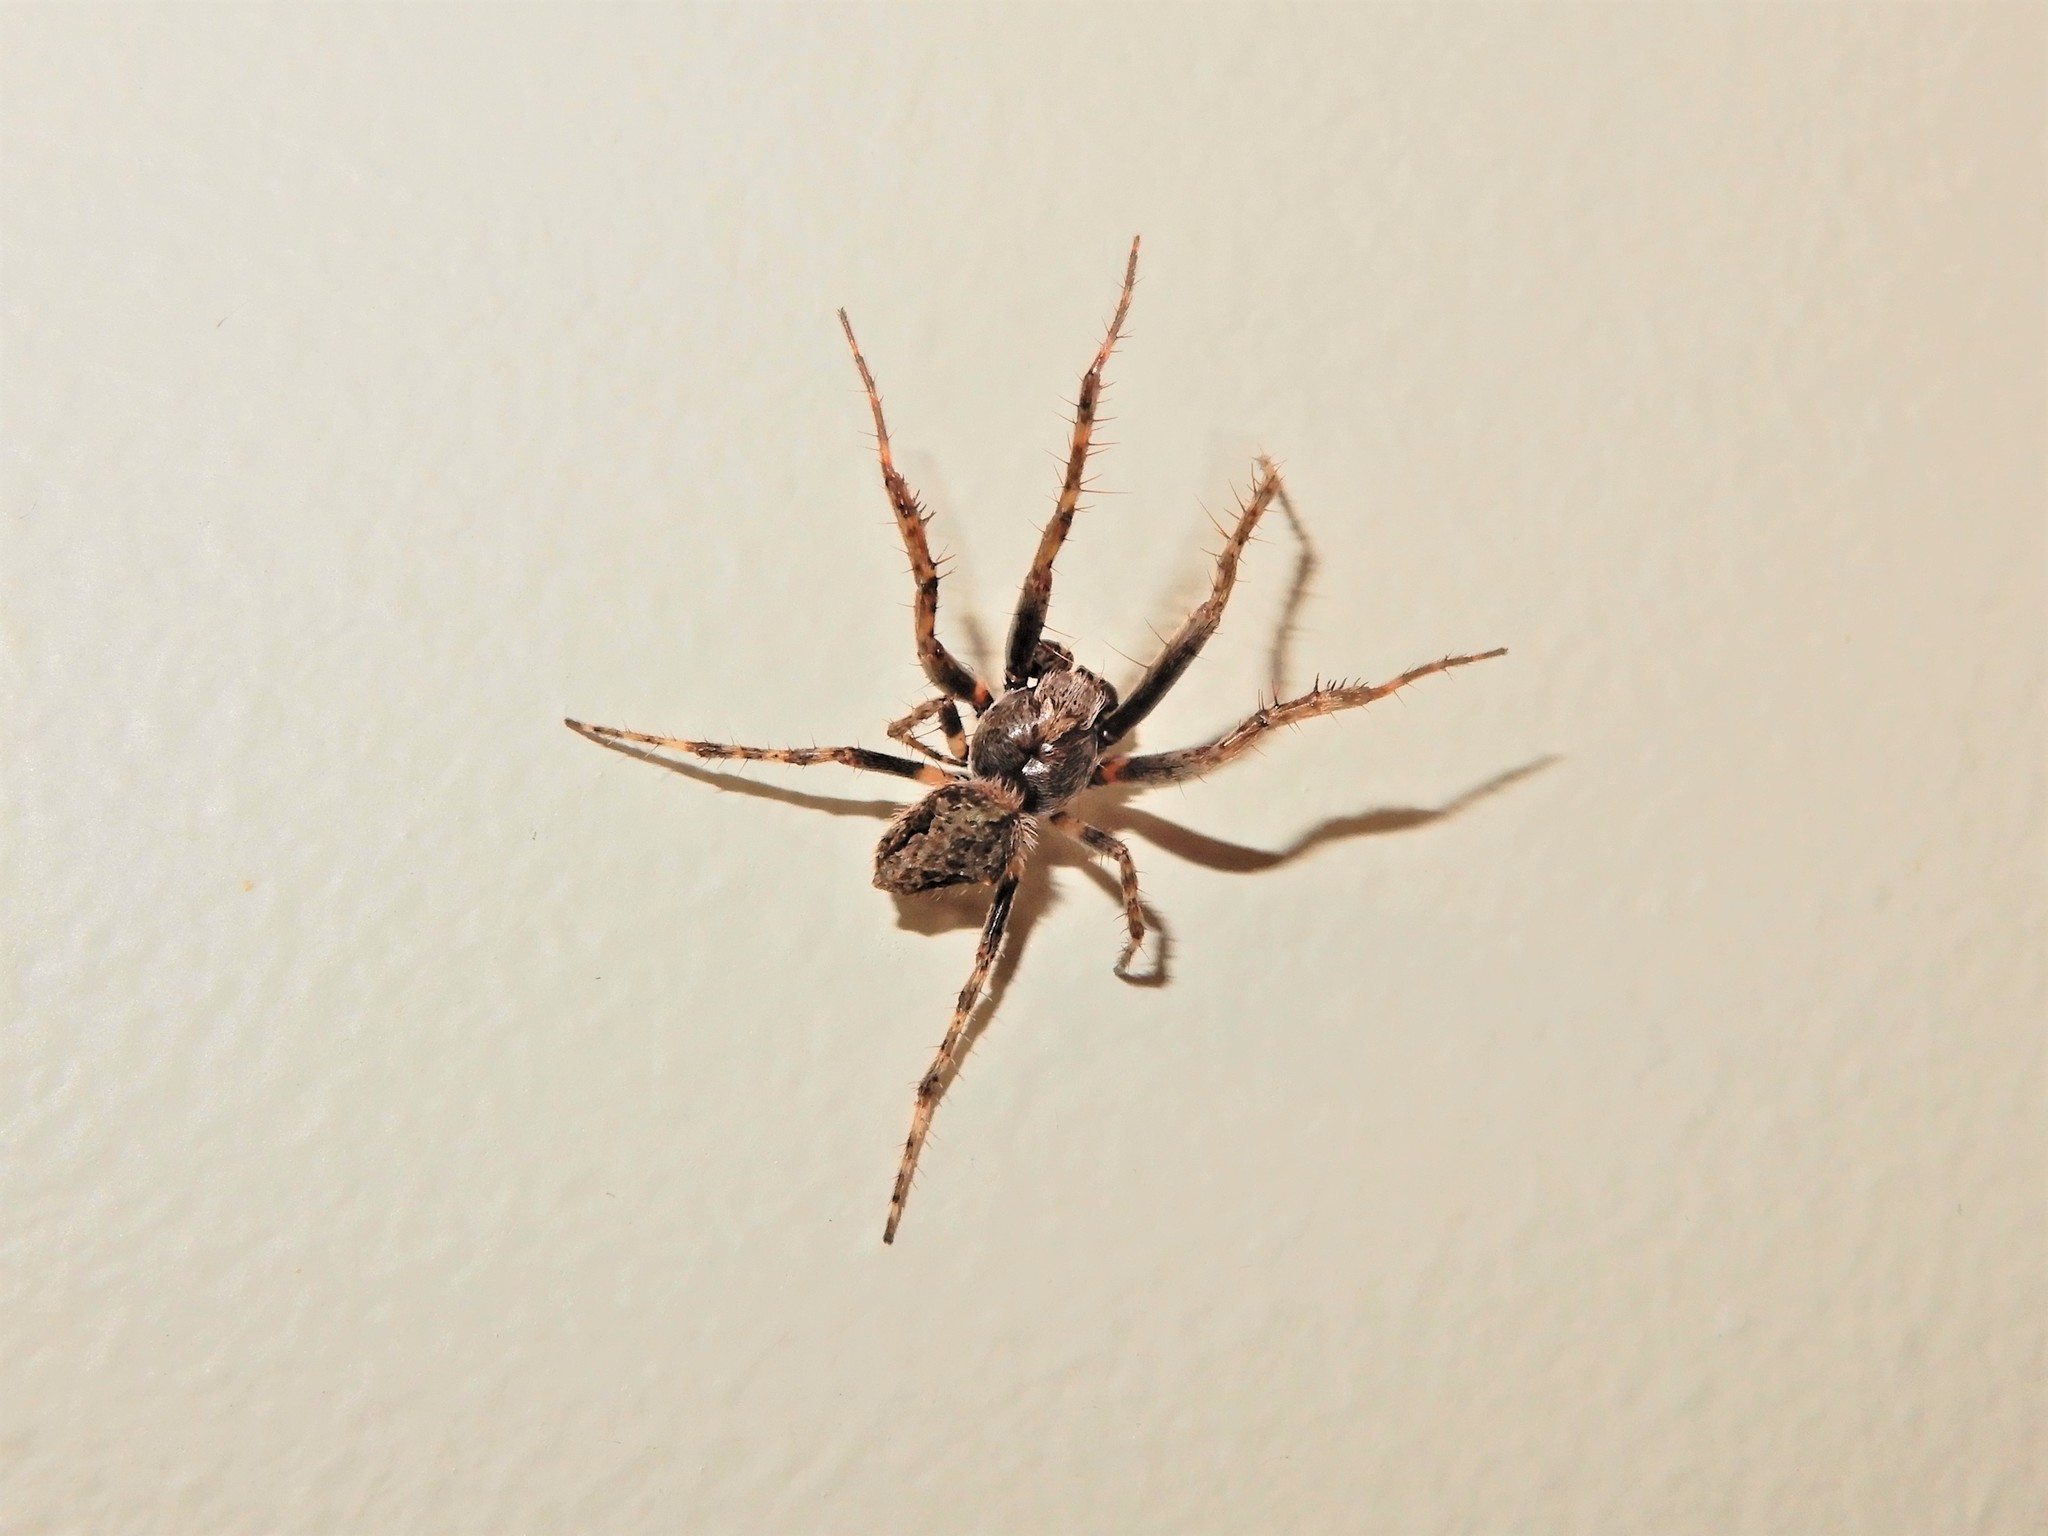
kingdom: Animalia
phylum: Arthropoda
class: Arachnida
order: Araneae
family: Araneidae
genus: Eriophora
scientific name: Eriophora pustulosa
